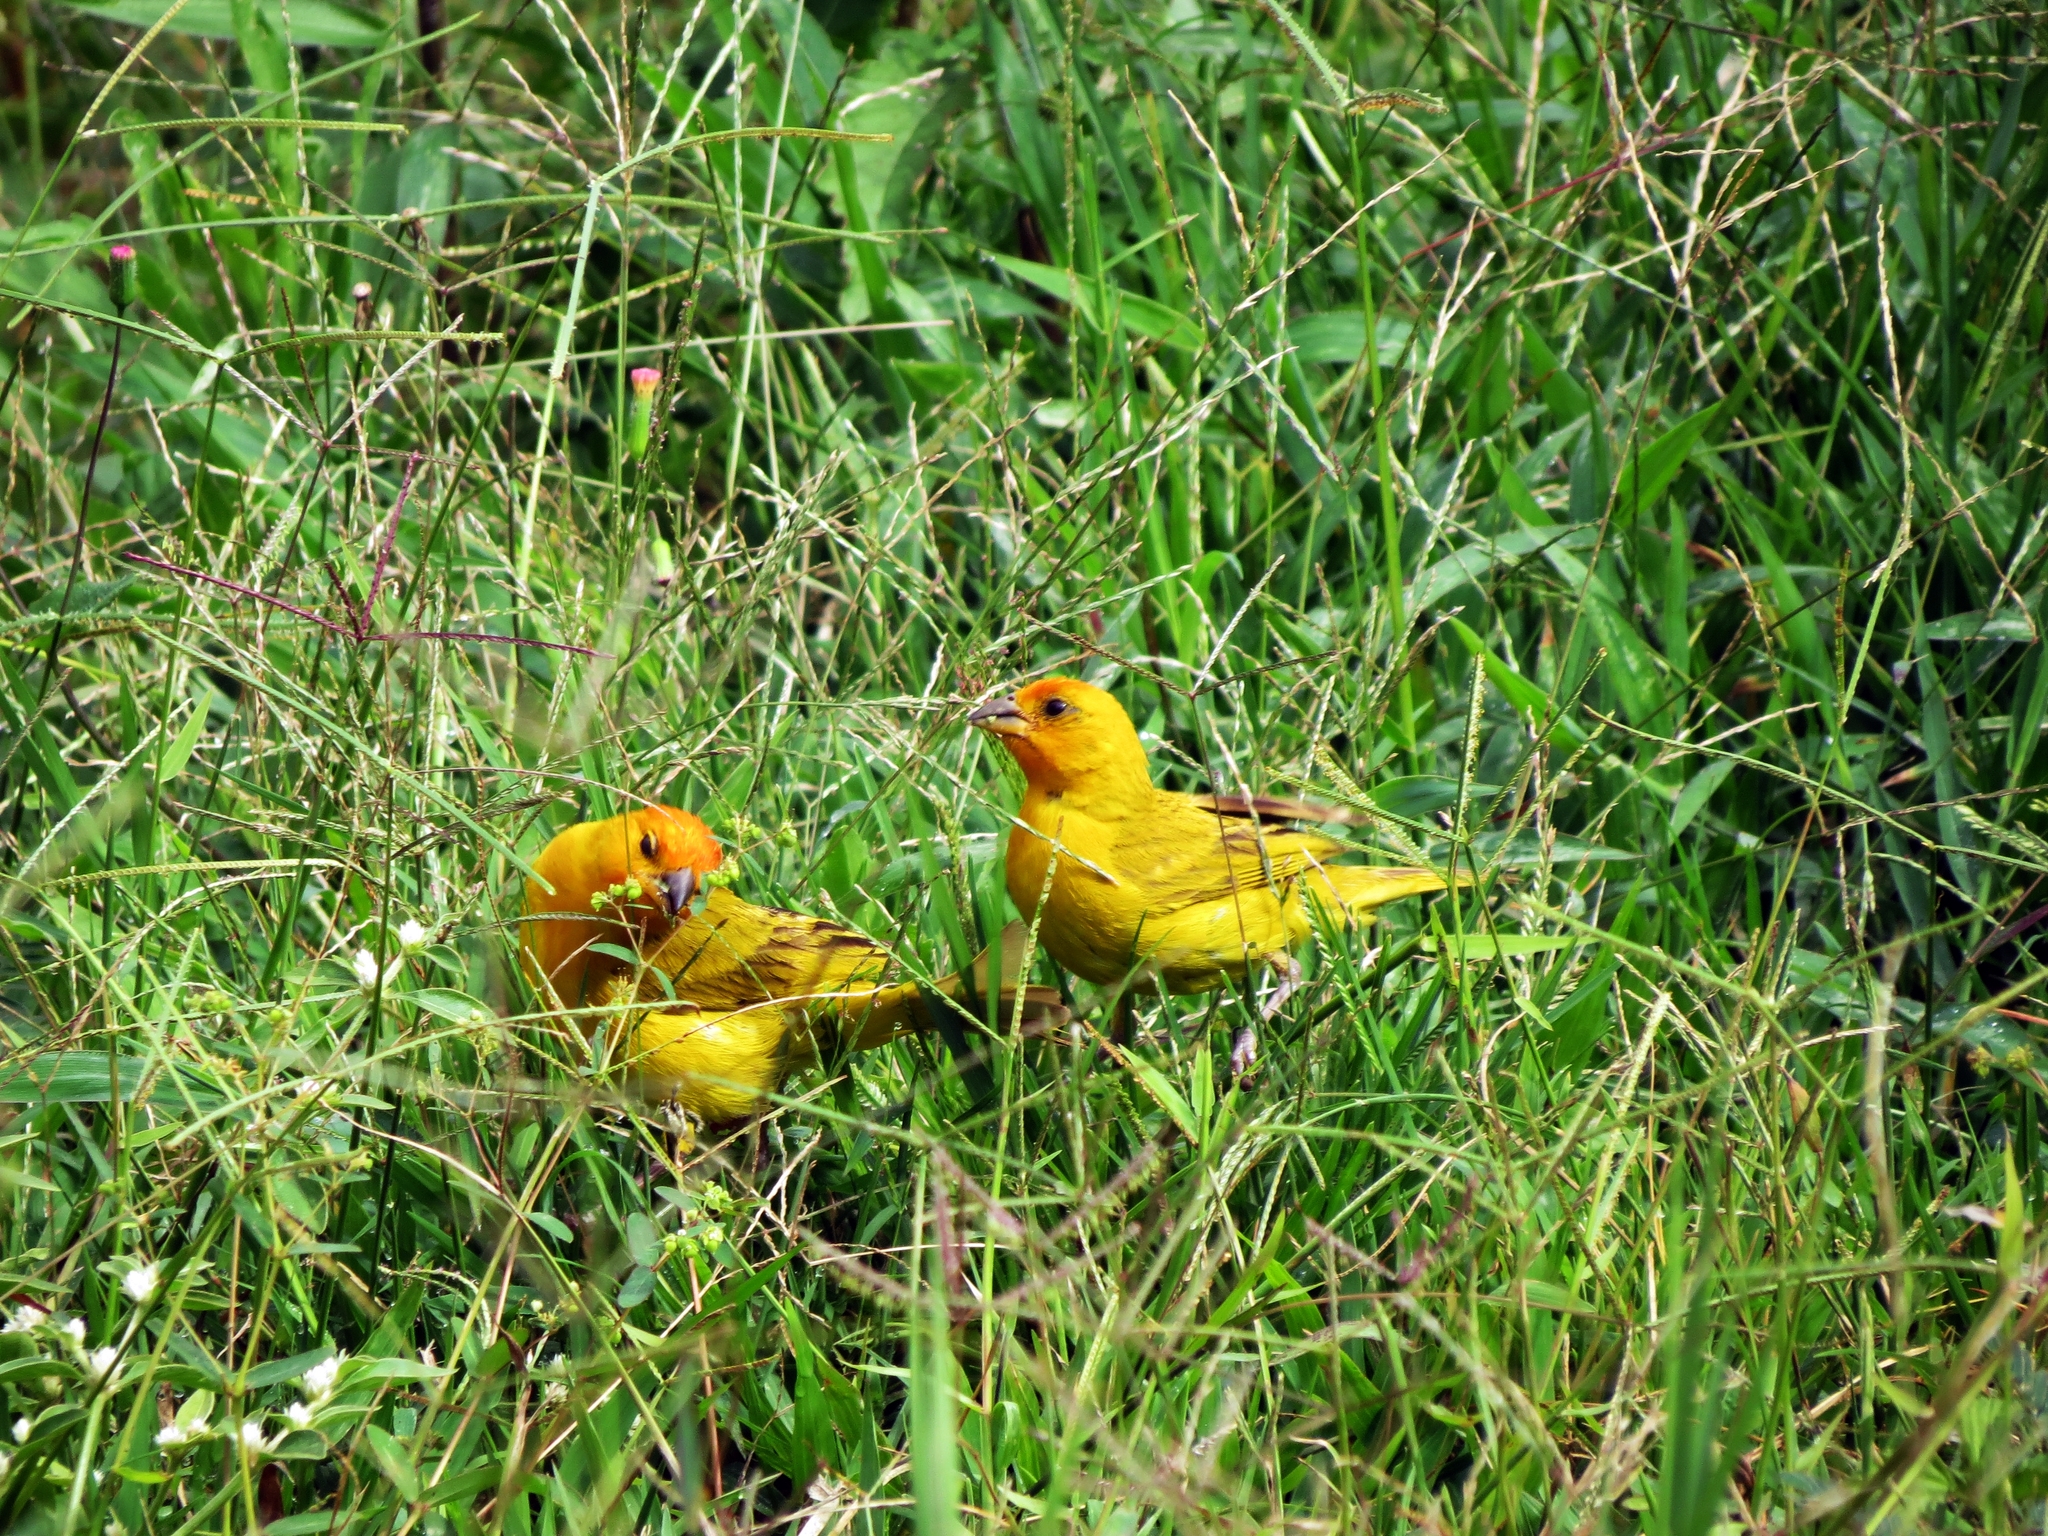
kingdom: Animalia
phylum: Chordata
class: Aves
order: Passeriformes
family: Thraupidae
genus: Sicalis
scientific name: Sicalis flaveola
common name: Saffron finch
